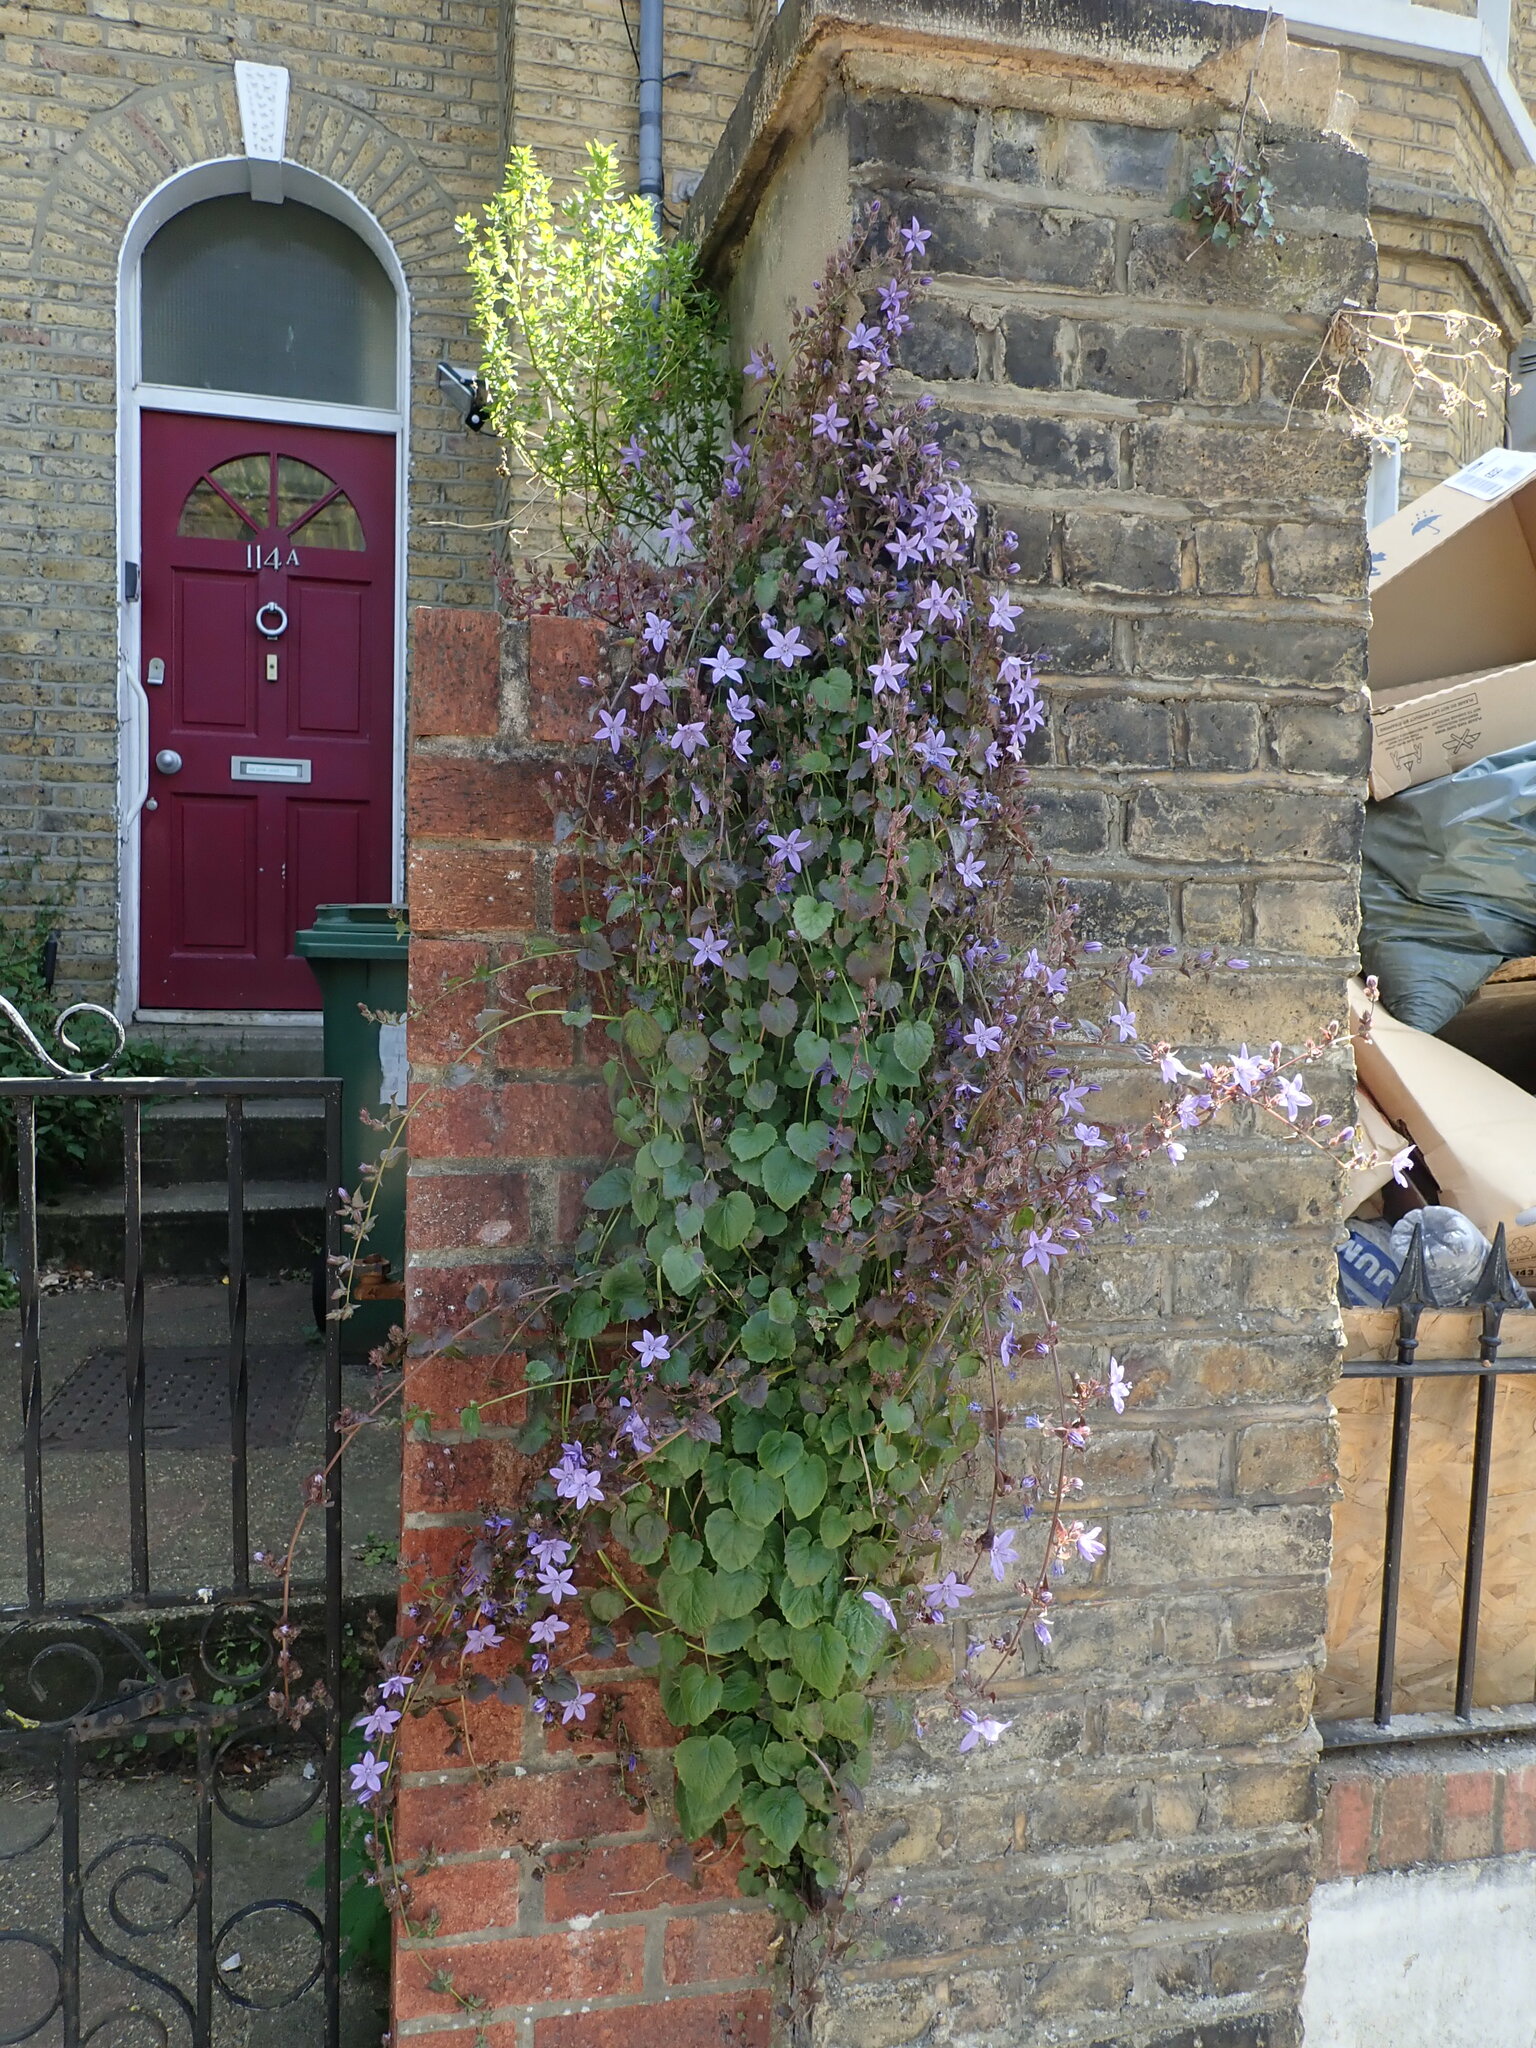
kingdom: Plantae
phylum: Tracheophyta
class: Magnoliopsida
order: Asterales
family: Campanulaceae
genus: Campanula
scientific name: Campanula poscharskyana
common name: Trailing bellflower
